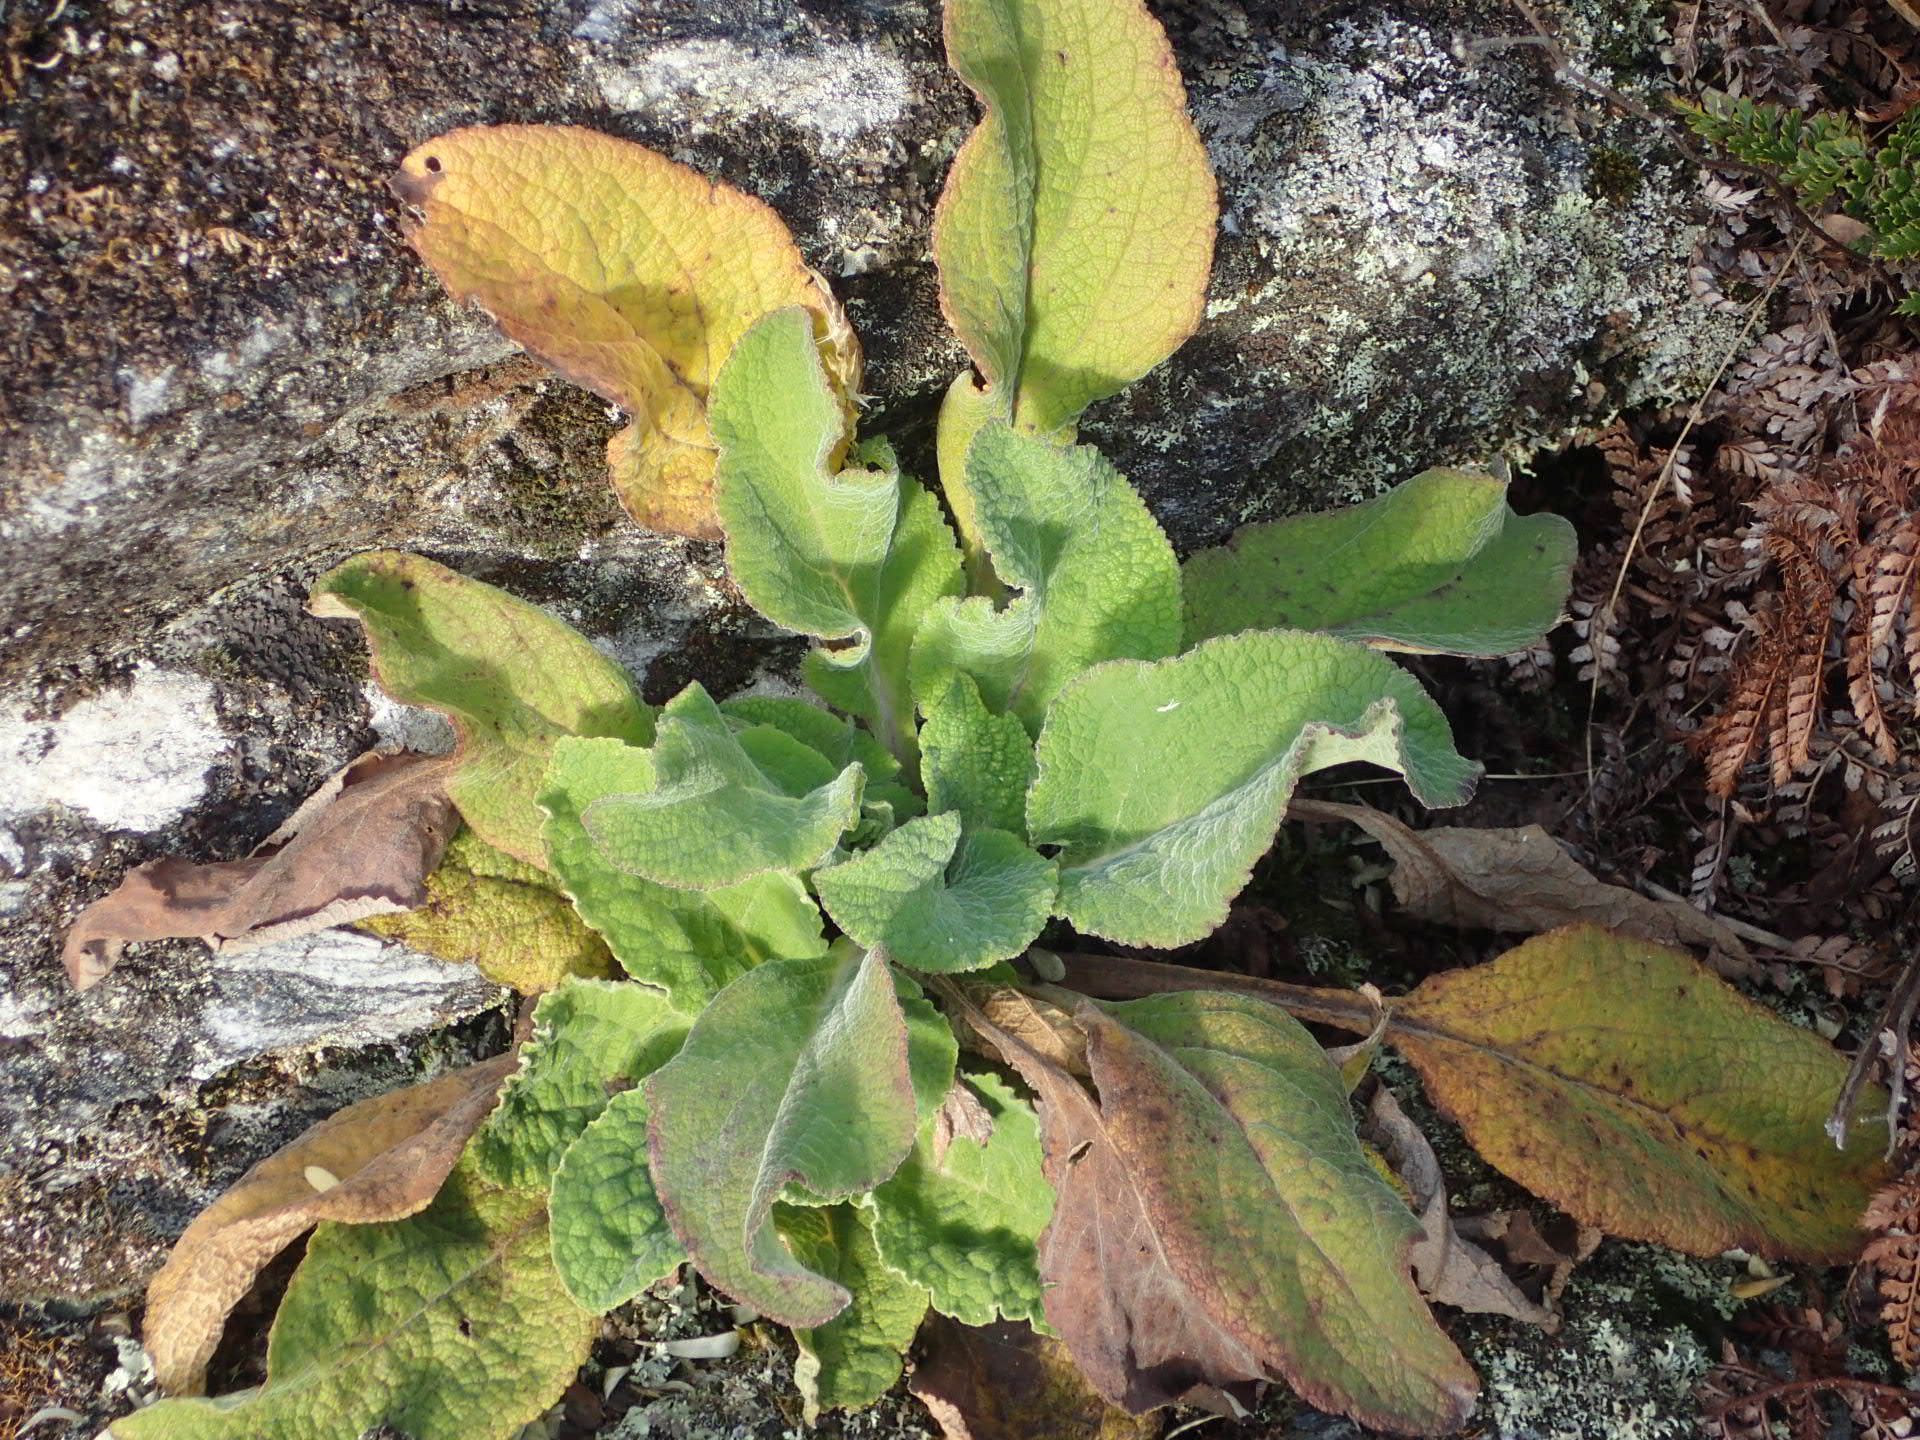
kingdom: Plantae
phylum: Tracheophyta
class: Magnoliopsida
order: Lamiales
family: Plantaginaceae
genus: Digitalis
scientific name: Digitalis purpurea
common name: Foxglove
